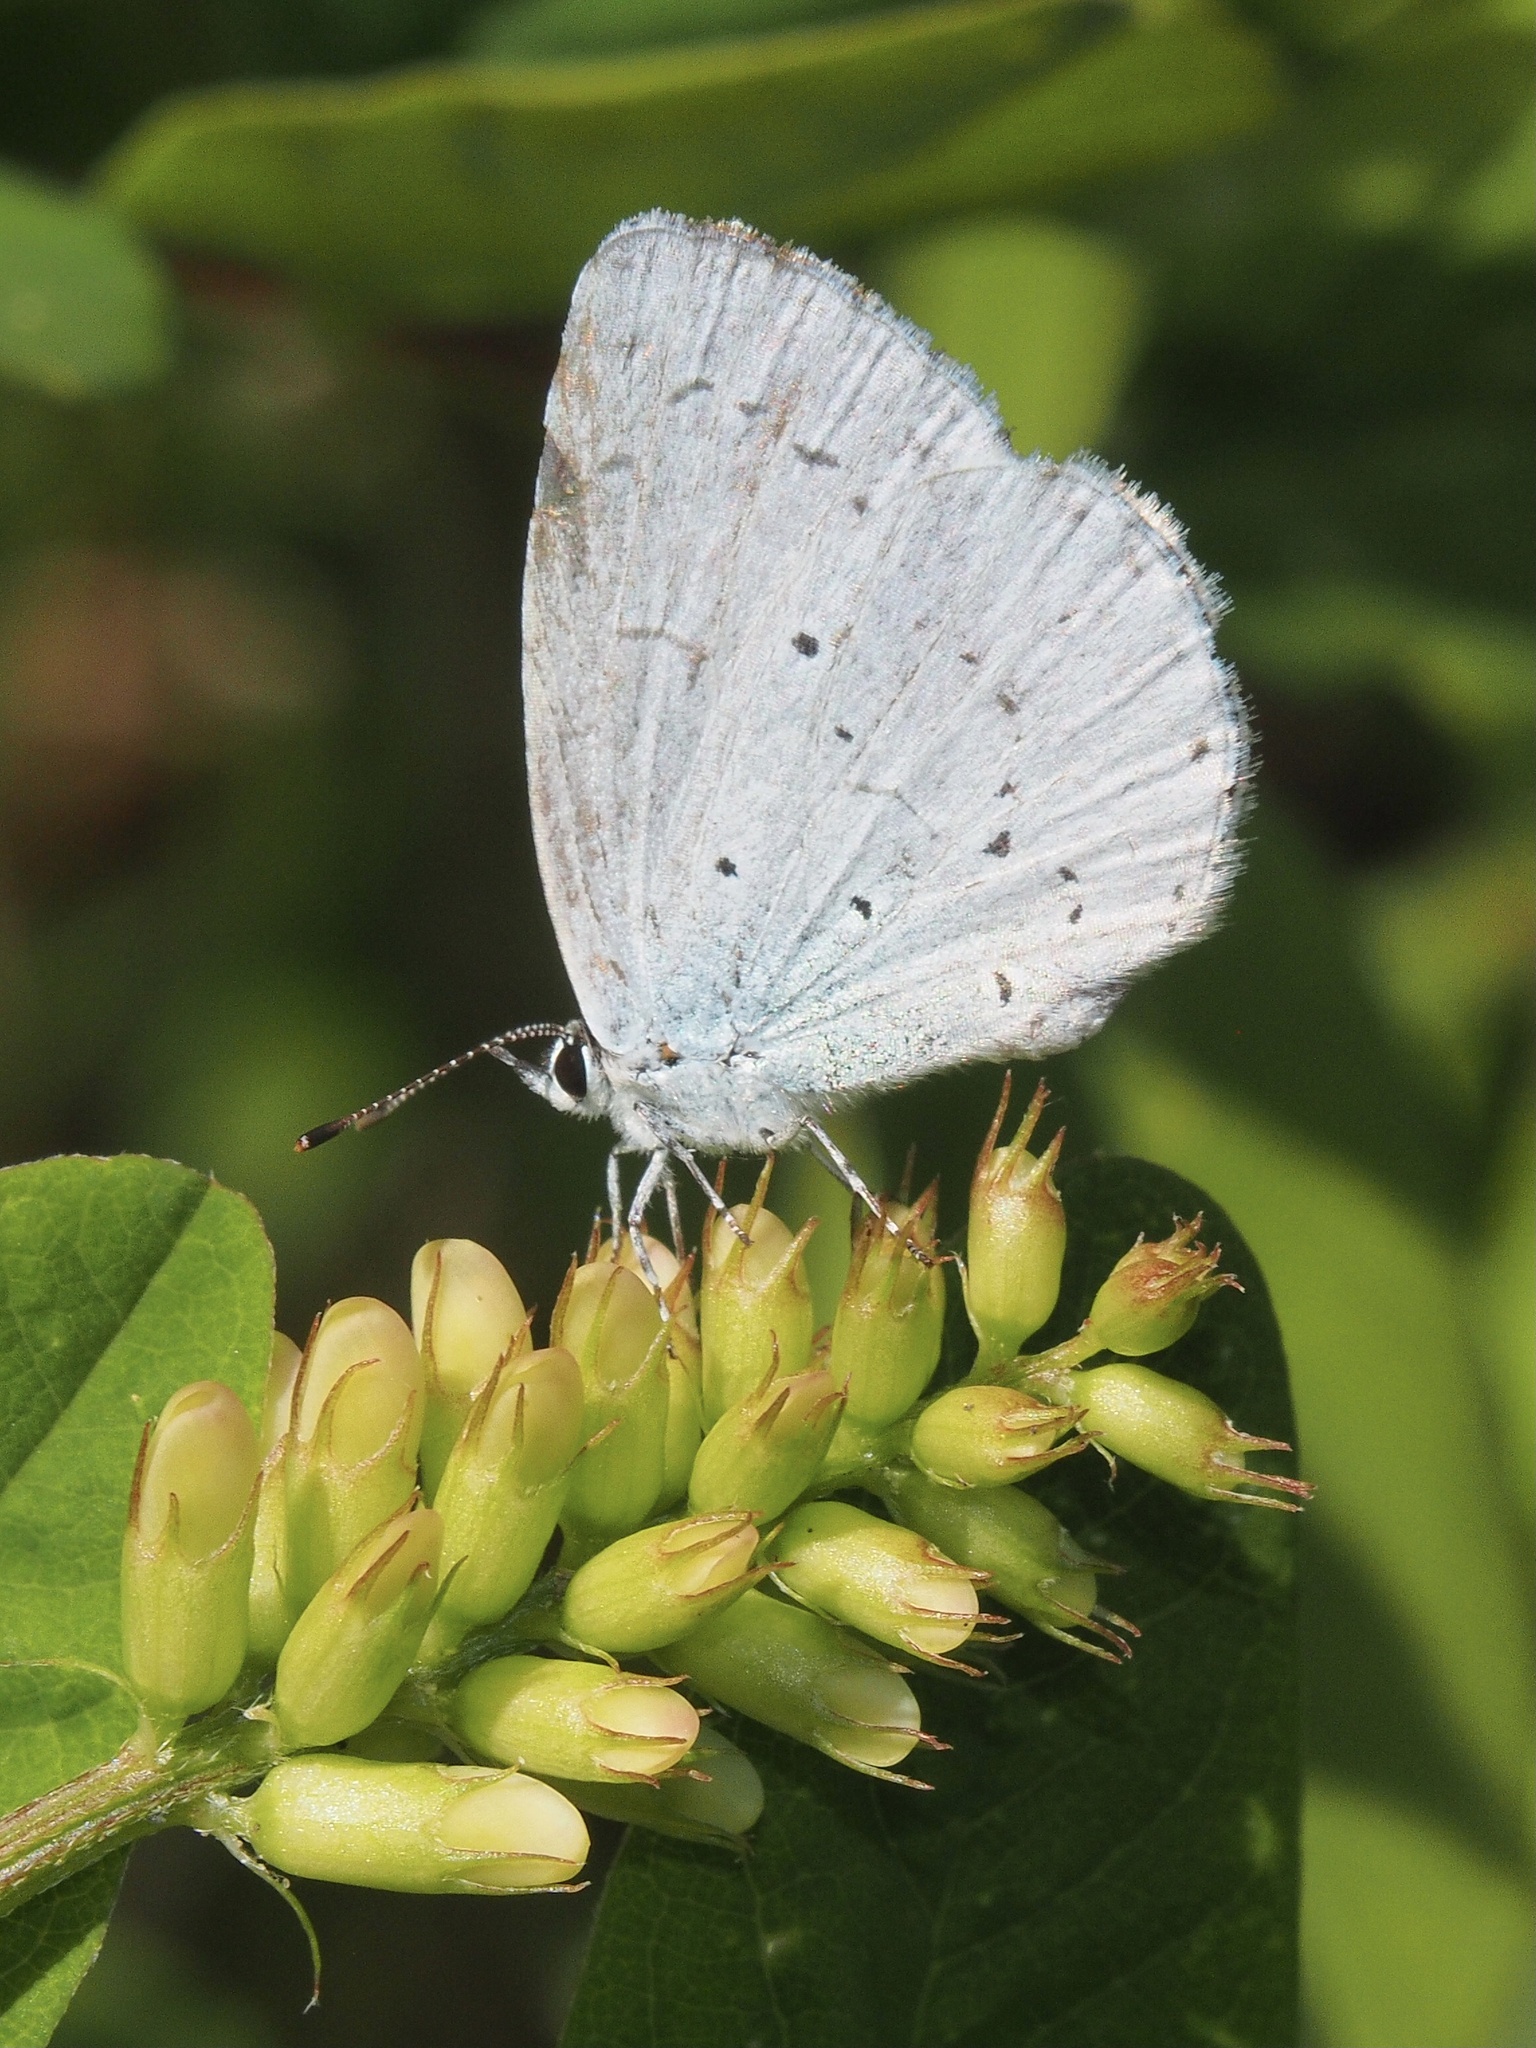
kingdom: Animalia
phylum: Arthropoda
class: Insecta
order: Lepidoptera
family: Lycaenidae
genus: Celastrina
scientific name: Celastrina argiolus
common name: Holly blue
